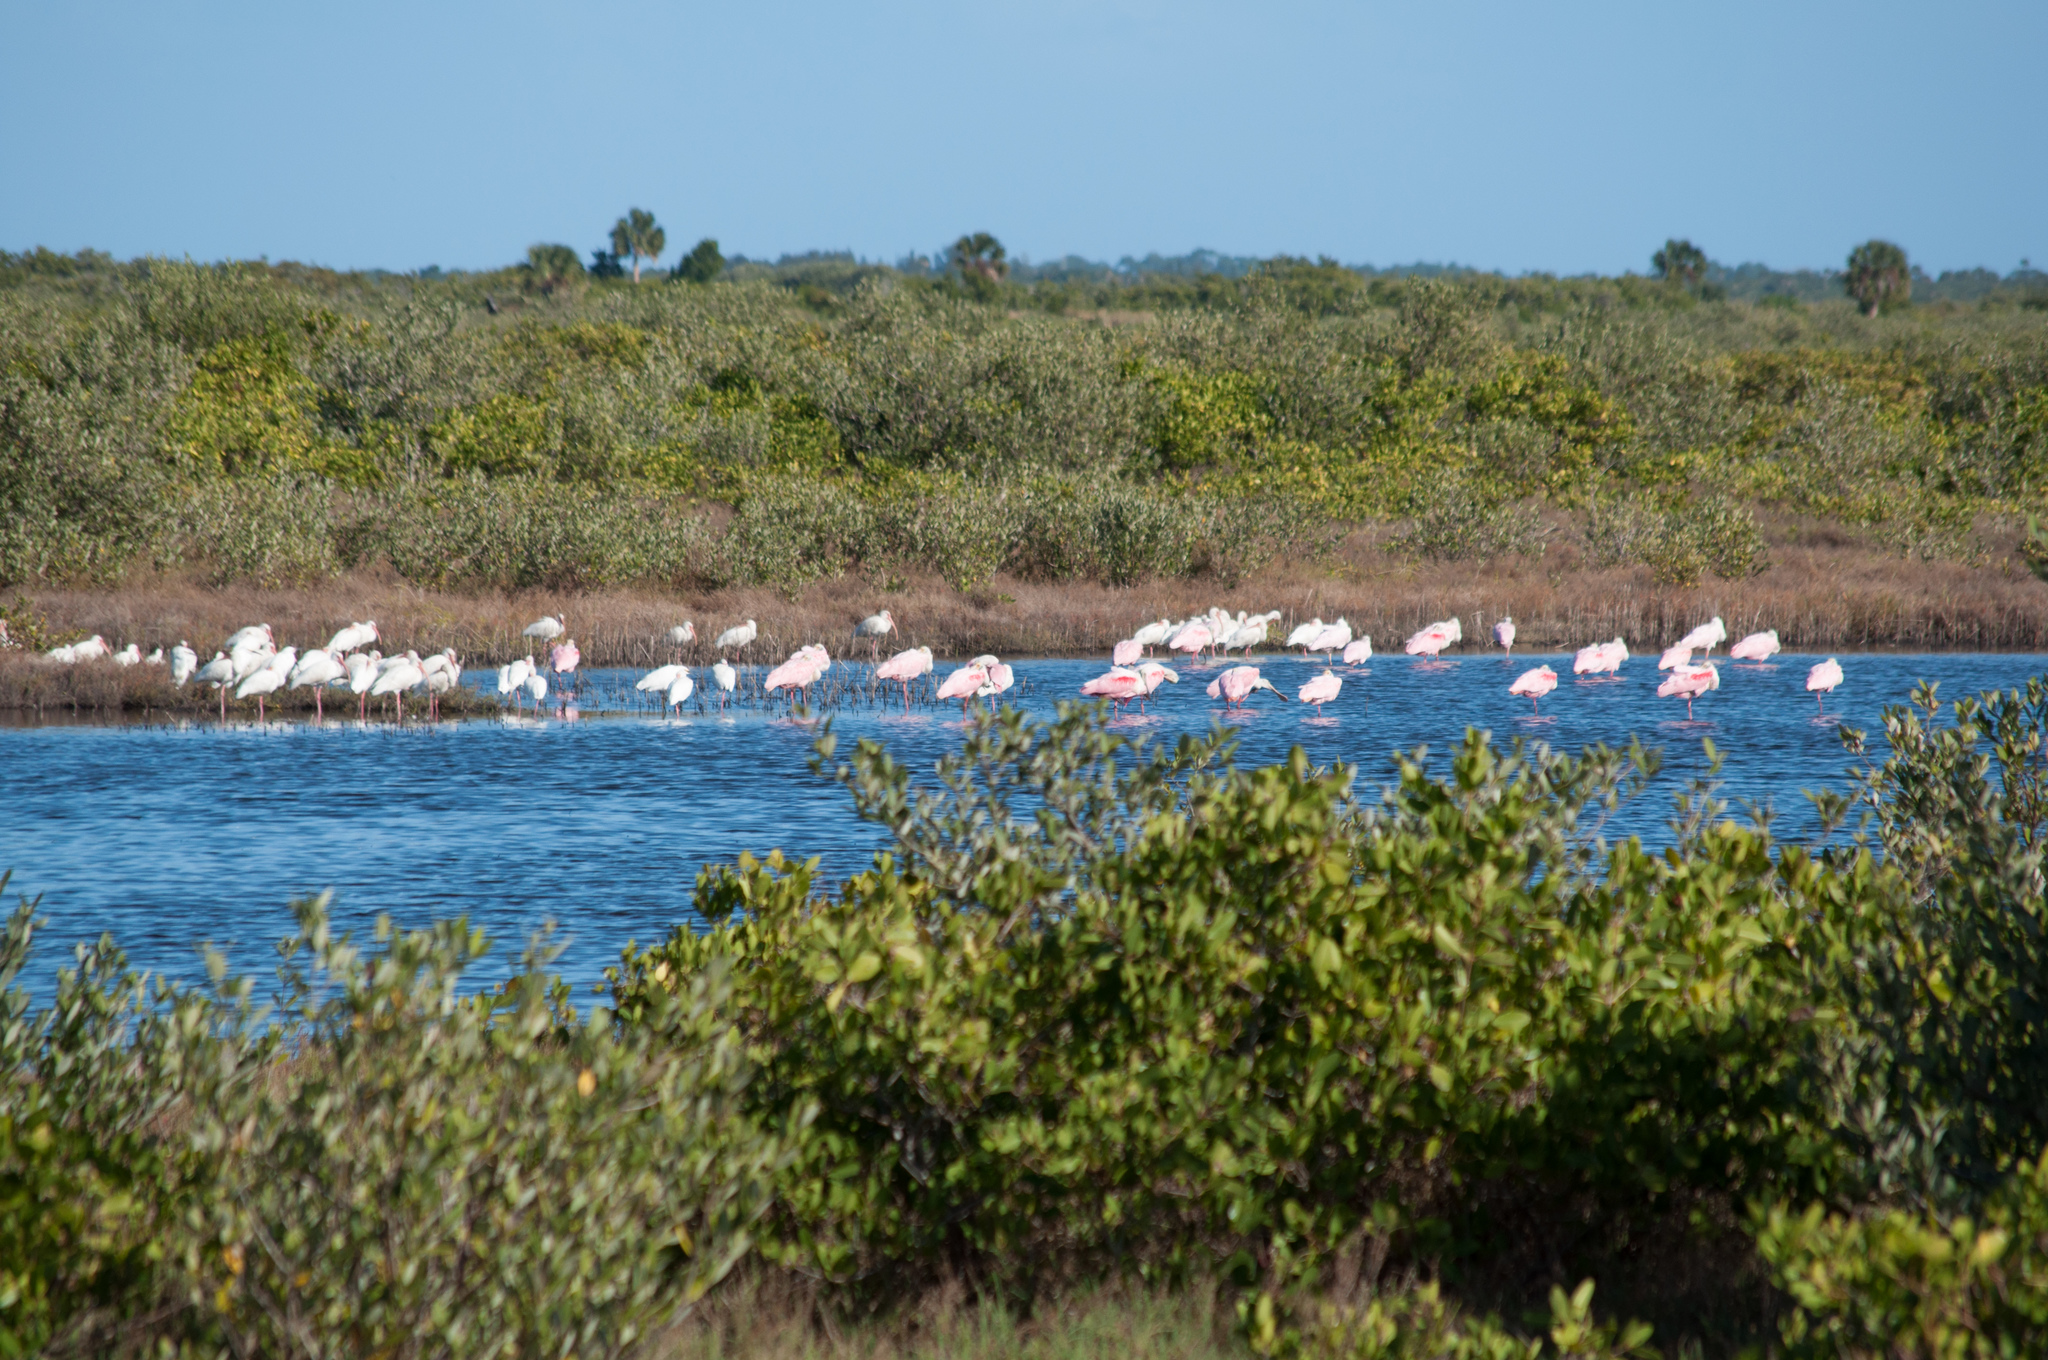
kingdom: Animalia
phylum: Chordata
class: Aves
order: Pelecaniformes
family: Threskiornithidae
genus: Platalea
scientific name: Platalea ajaja
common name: Roseate spoonbill
